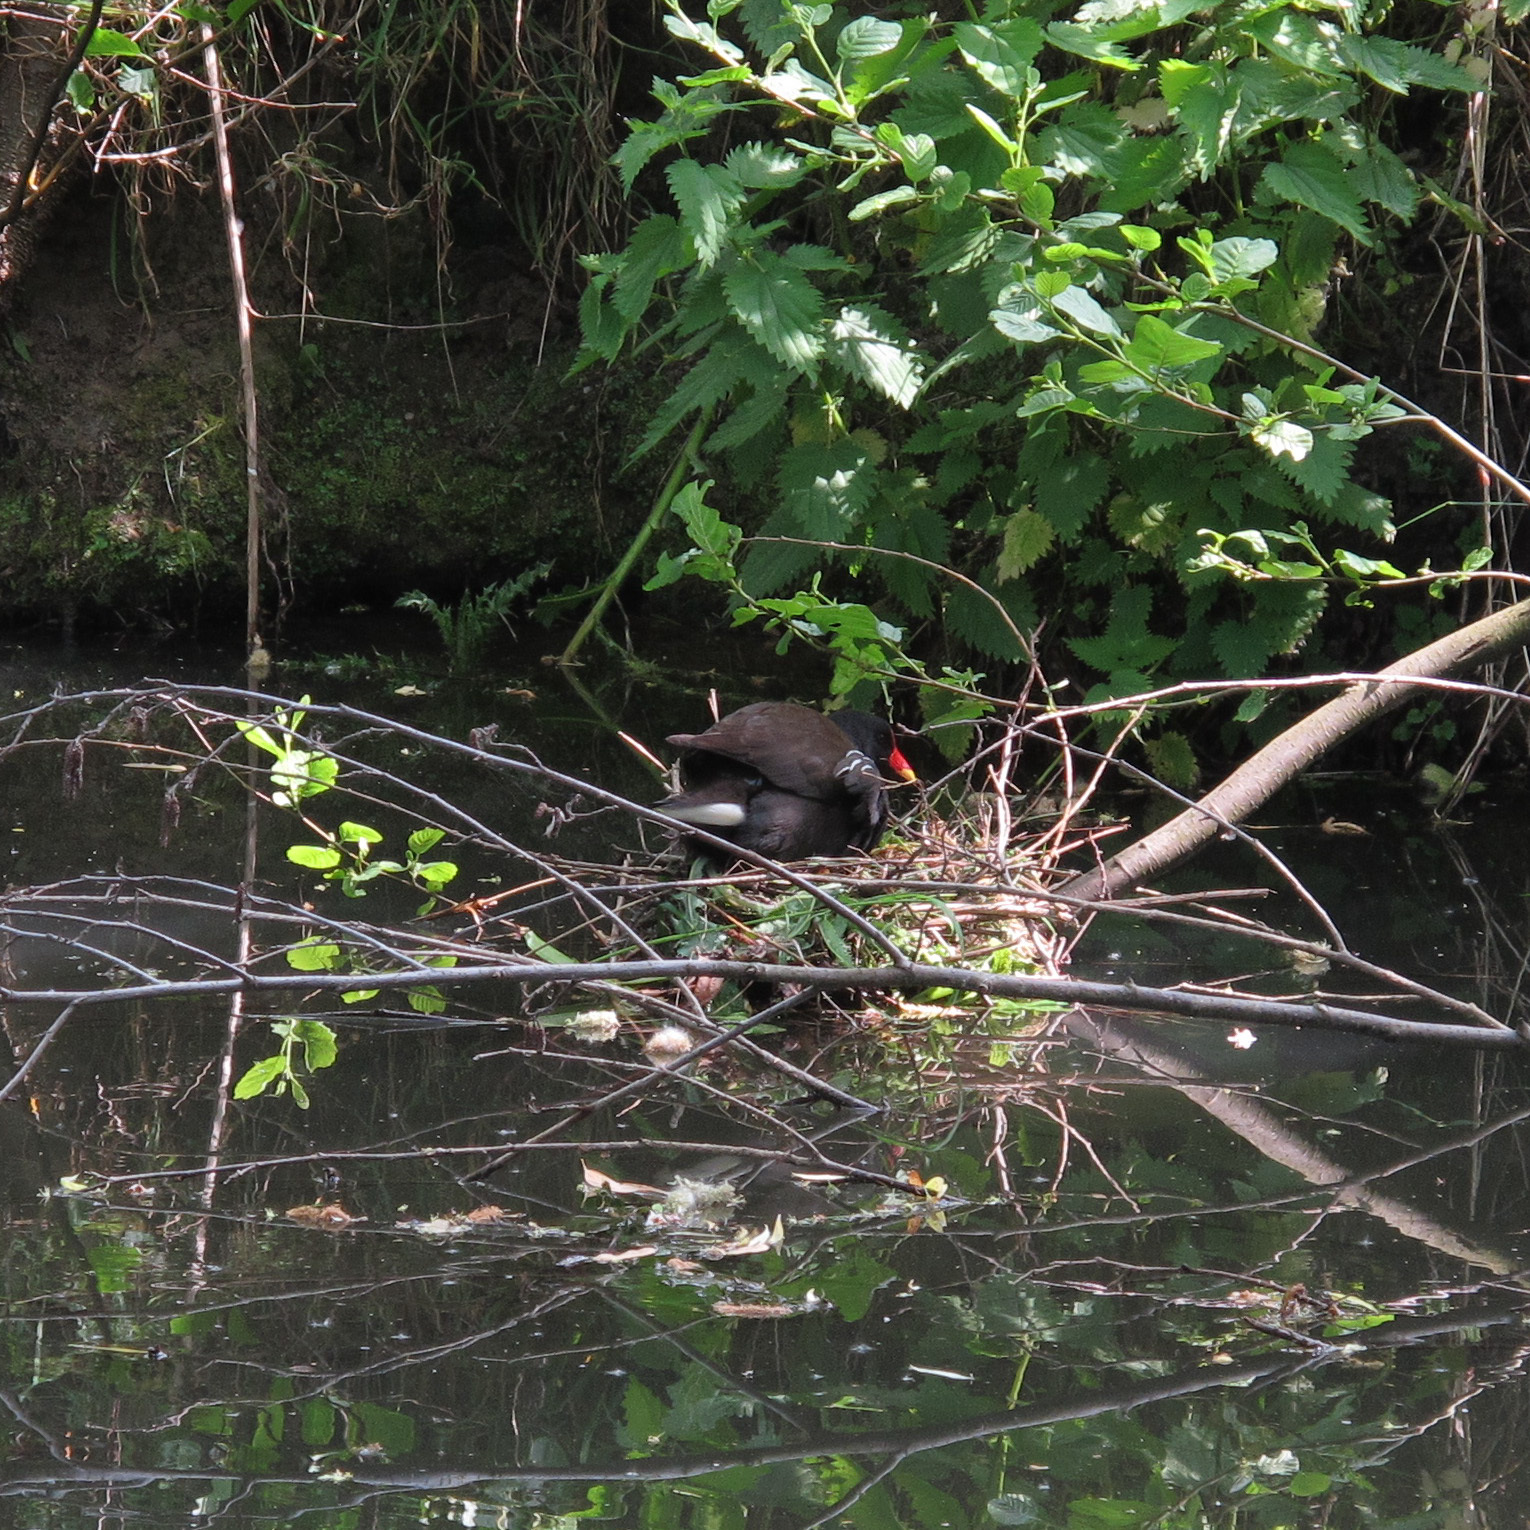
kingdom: Animalia
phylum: Chordata
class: Aves
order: Gruiformes
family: Rallidae
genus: Gallinula
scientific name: Gallinula chloropus
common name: Common moorhen
